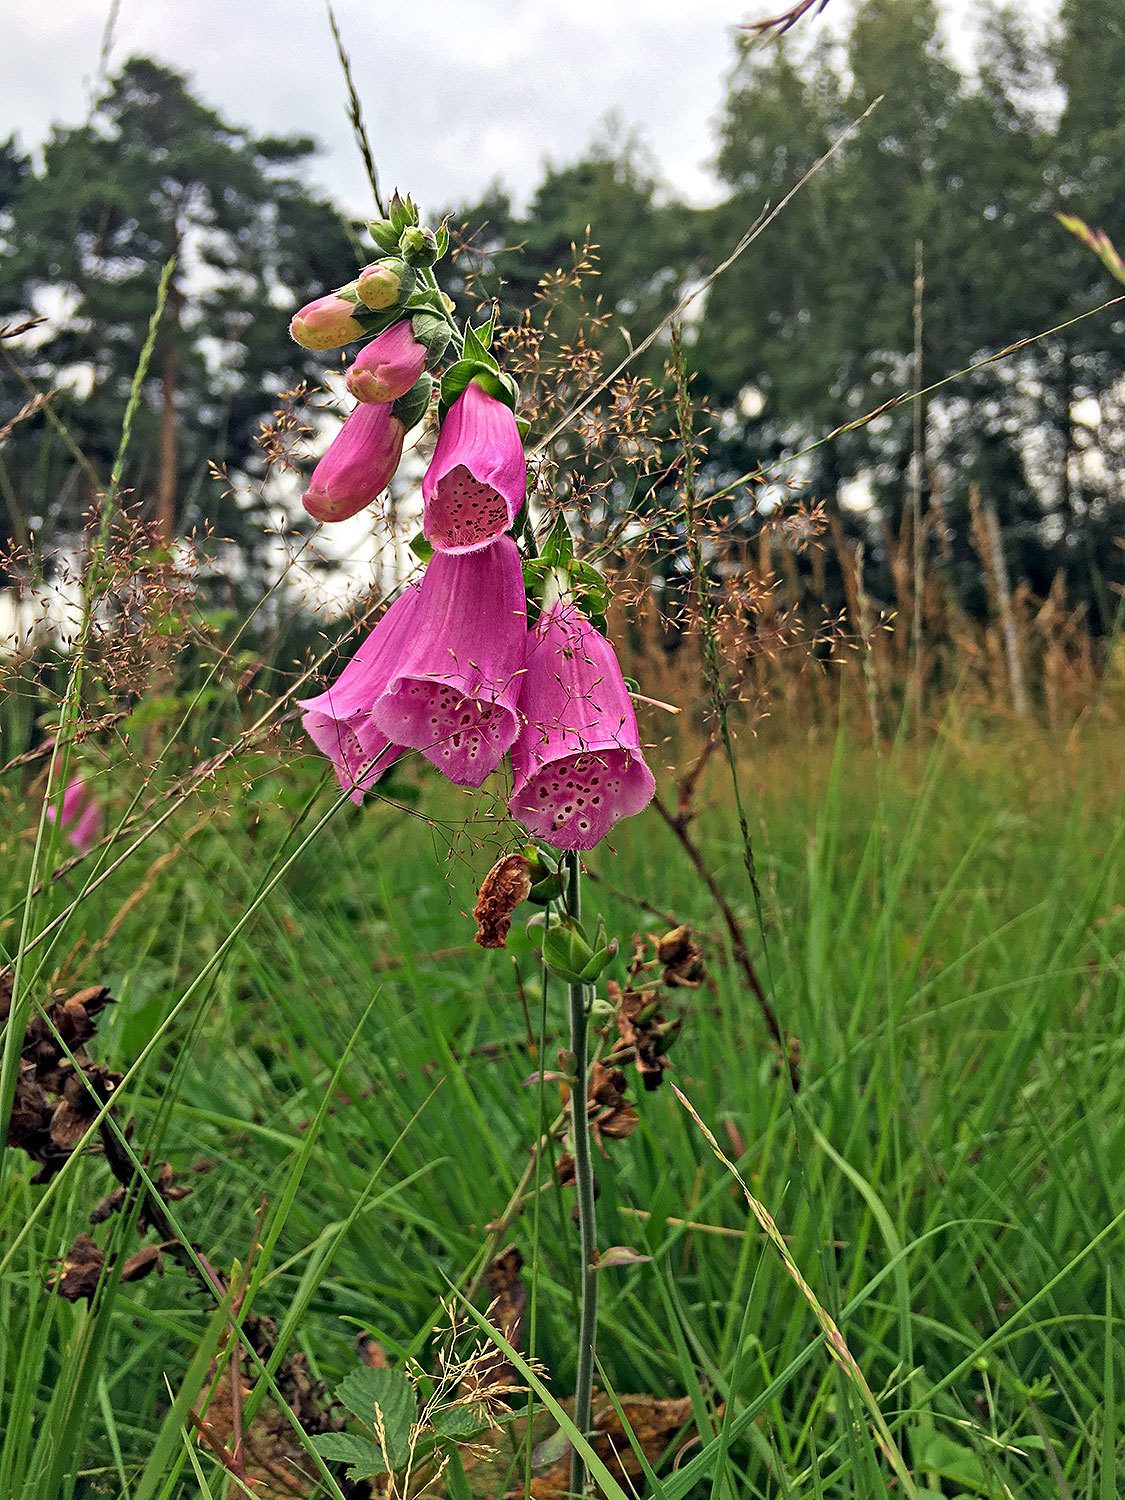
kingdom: Plantae
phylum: Tracheophyta
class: Magnoliopsida
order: Lamiales
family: Plantaginaceae
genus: Digitalis
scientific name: Digitalis purpurea
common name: Foxglove
